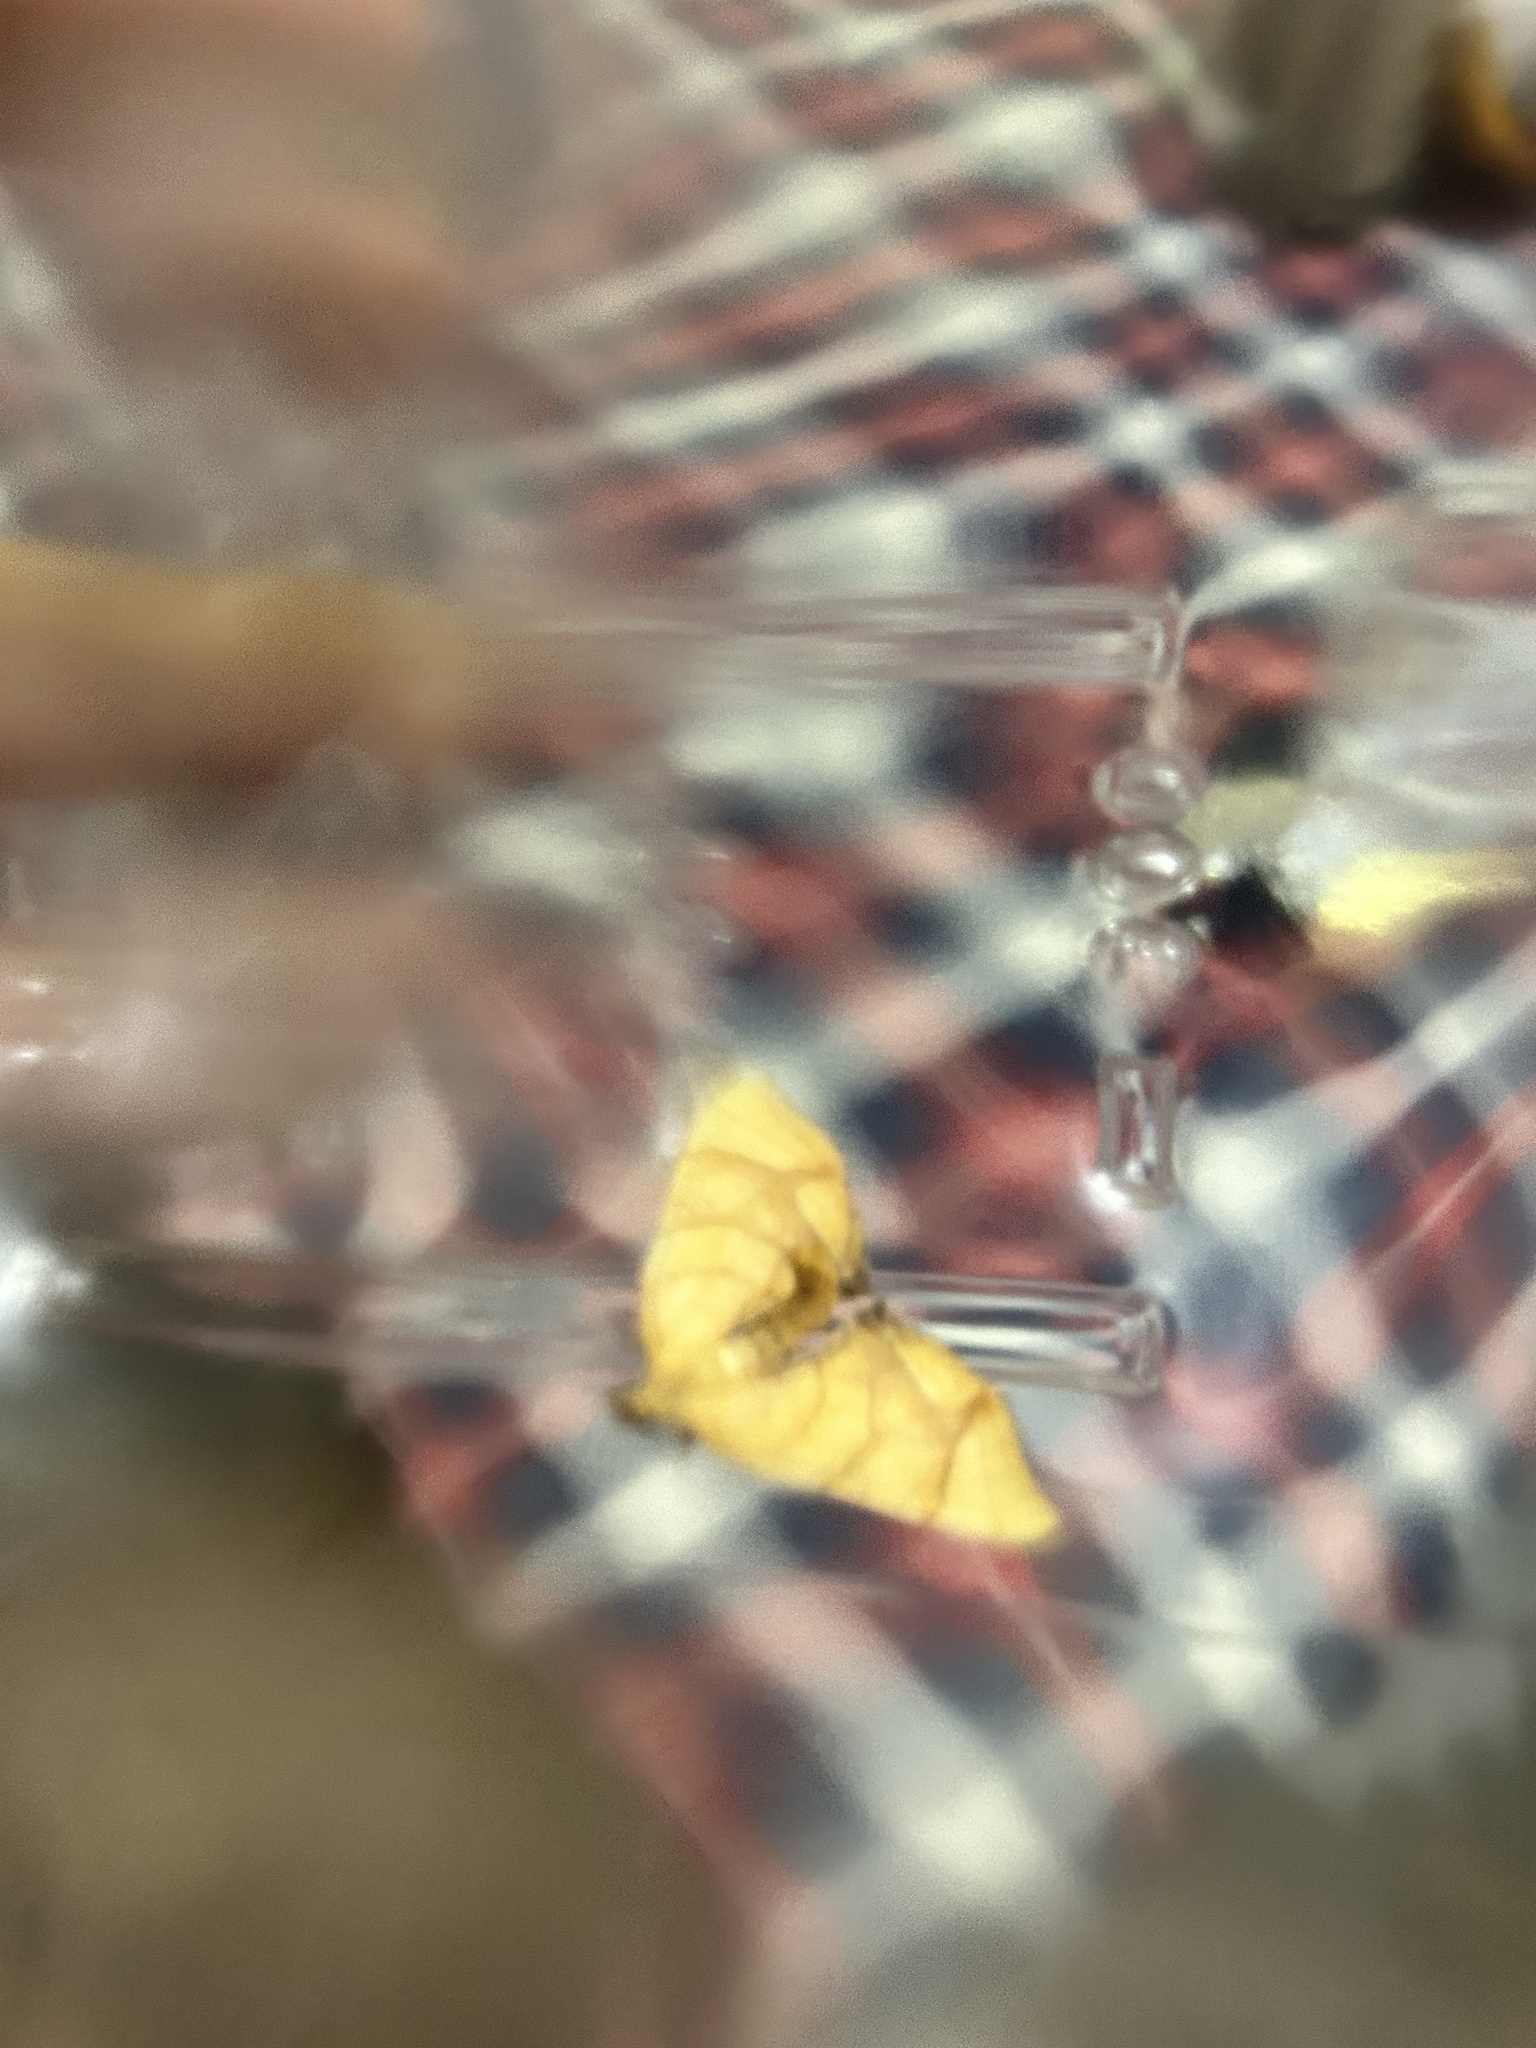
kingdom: Animalia
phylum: Arthropoda
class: Insecta
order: Lepidoptera
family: Geometridae
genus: Eulithis
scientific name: Eulithis gracilineata
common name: Greater grapevine looper moth
